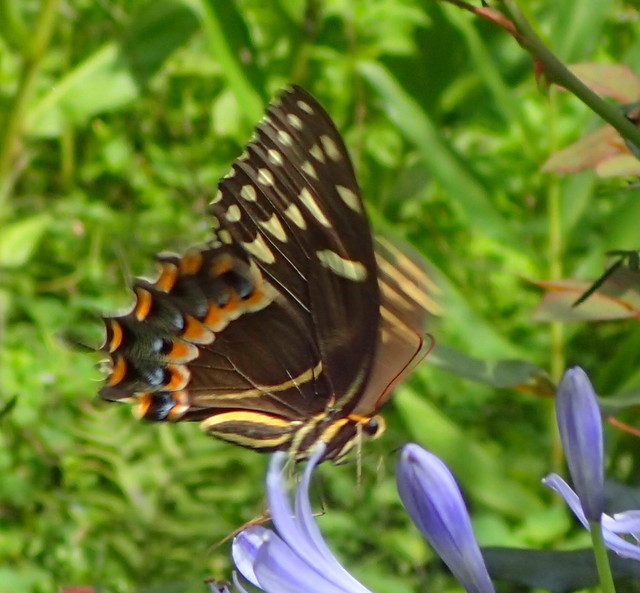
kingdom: Animalia
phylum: Arthropoda
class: Insecta
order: Lepidoptera
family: Papilionidae
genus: Papilio
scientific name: Papilio palamedes
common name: Palamedes swallowtail
